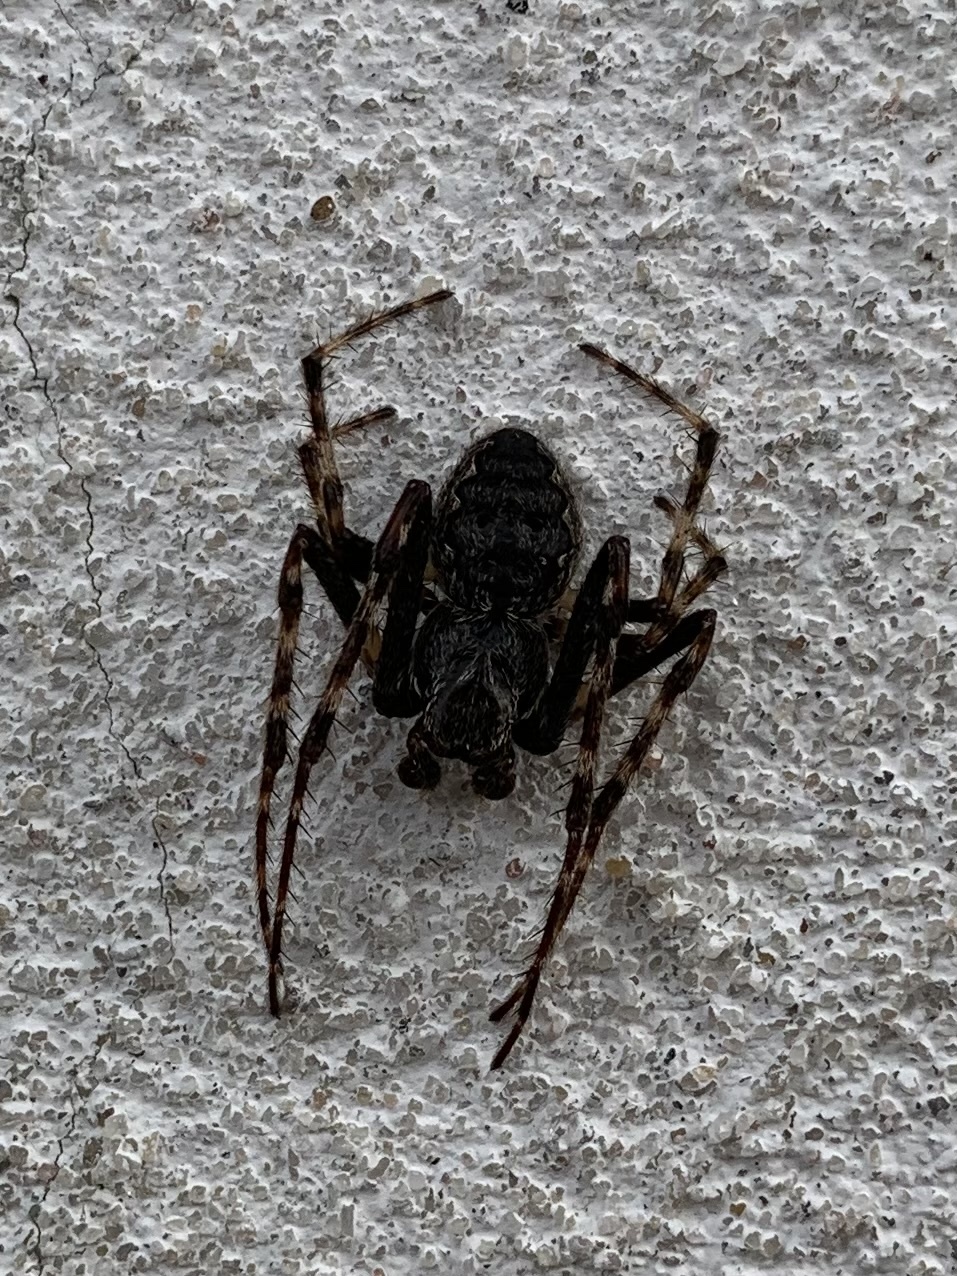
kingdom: Animalia
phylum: Arthropoda
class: Arachnida
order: Araneae
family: Araneidae
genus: Nuctenea
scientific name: Nuctenea umbratica
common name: Toad spider
